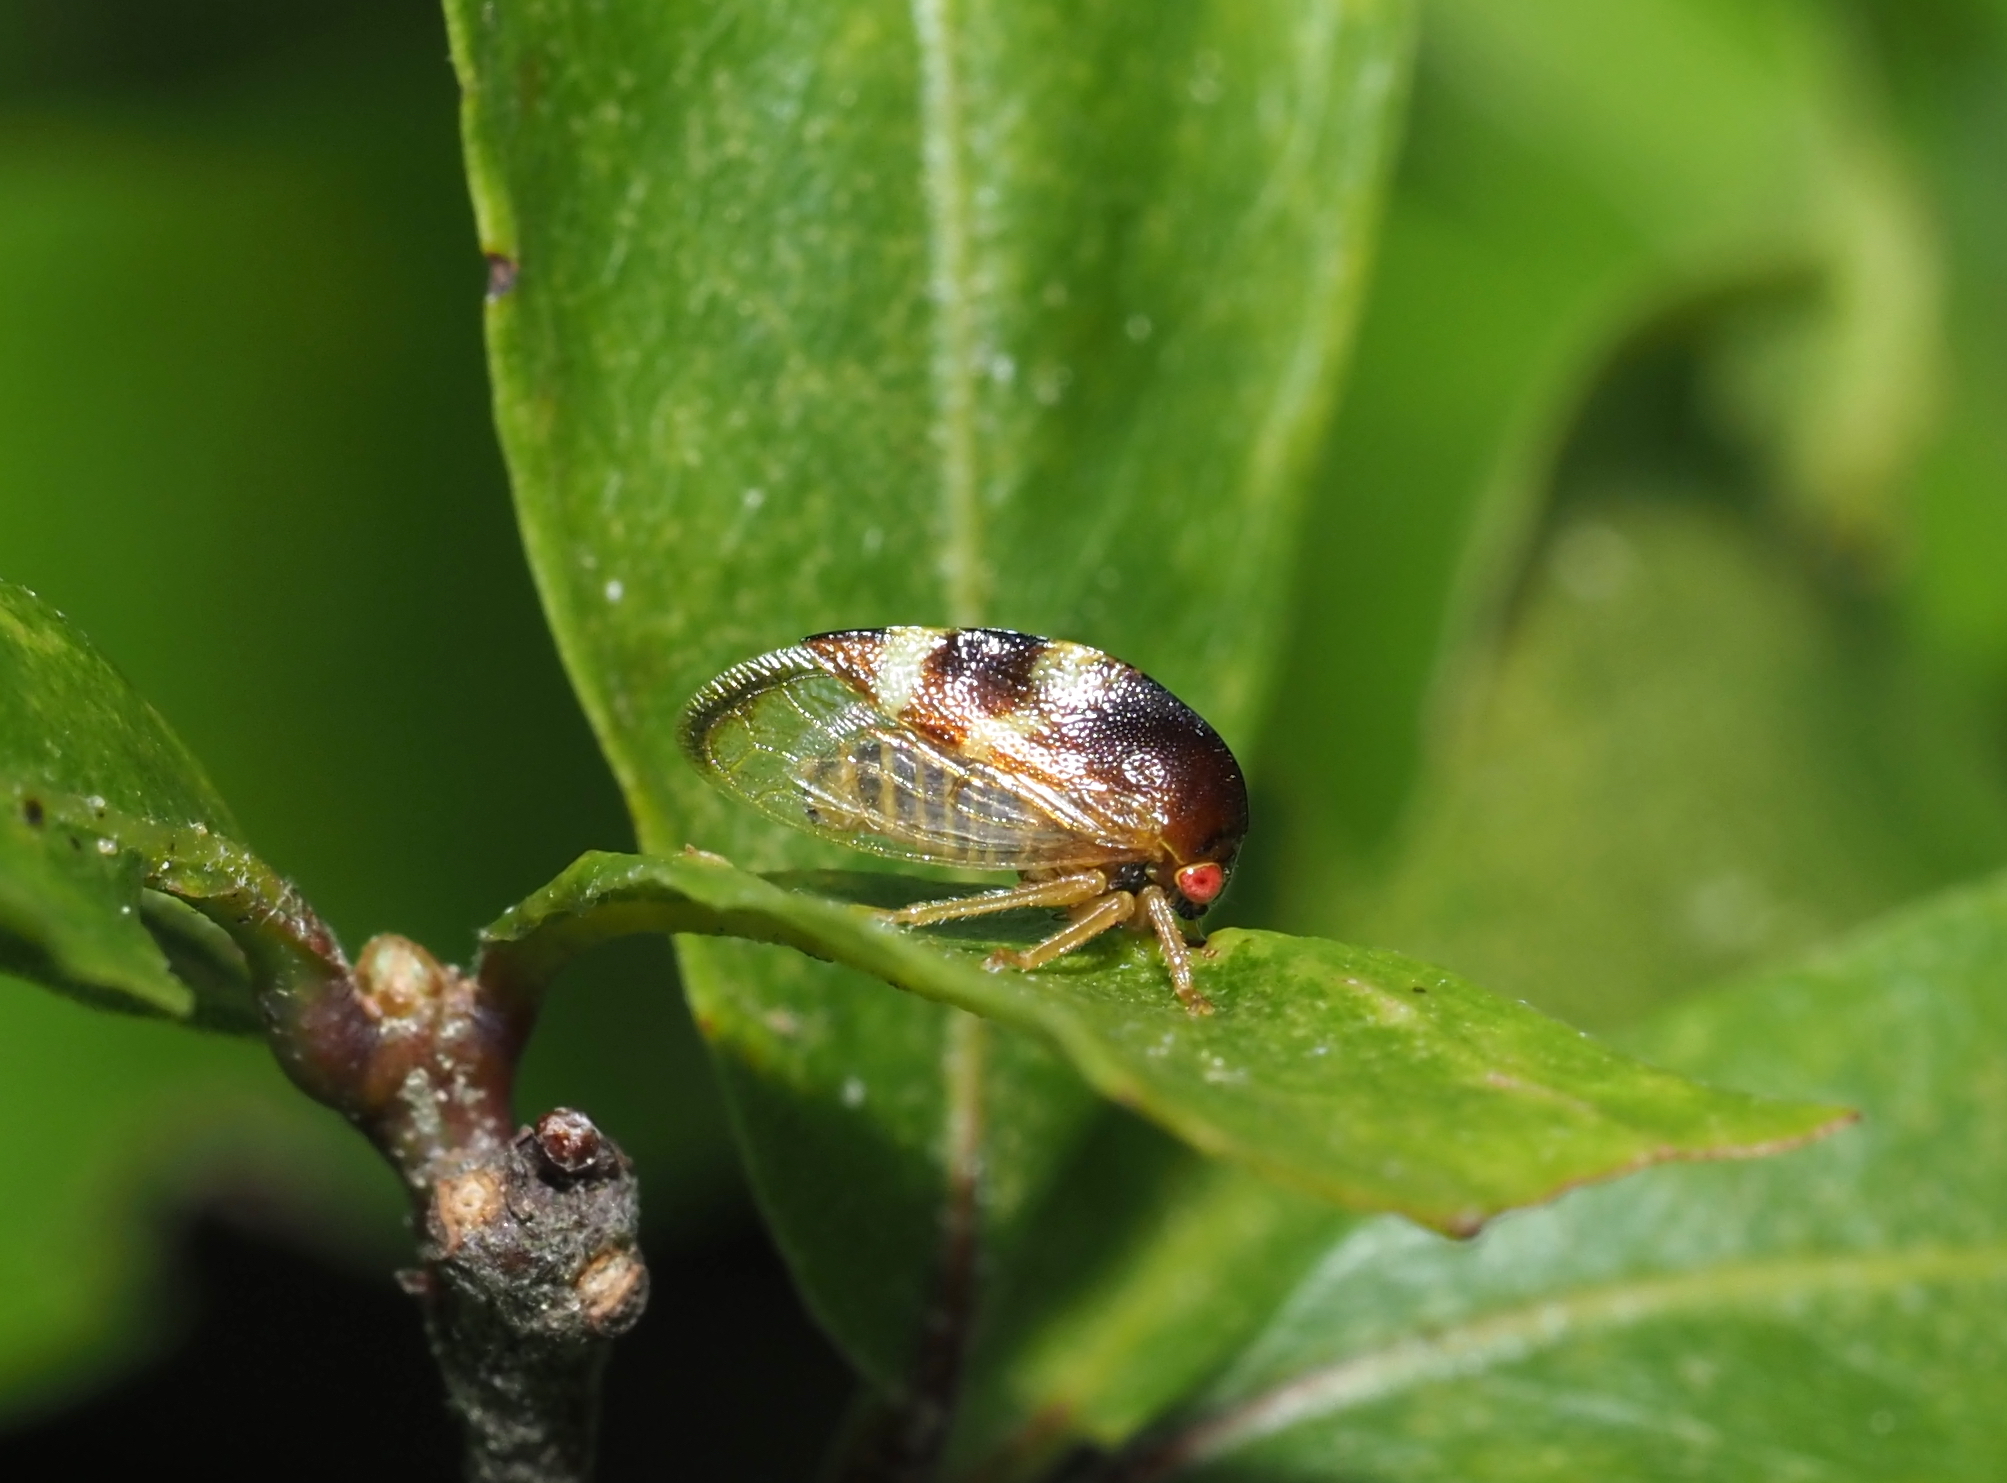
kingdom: Animalia
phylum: Arthropoda
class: Insecta
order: Hemiptera
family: Membracidae
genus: Cyrtolobus
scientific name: Cyrtolobus auroreus
